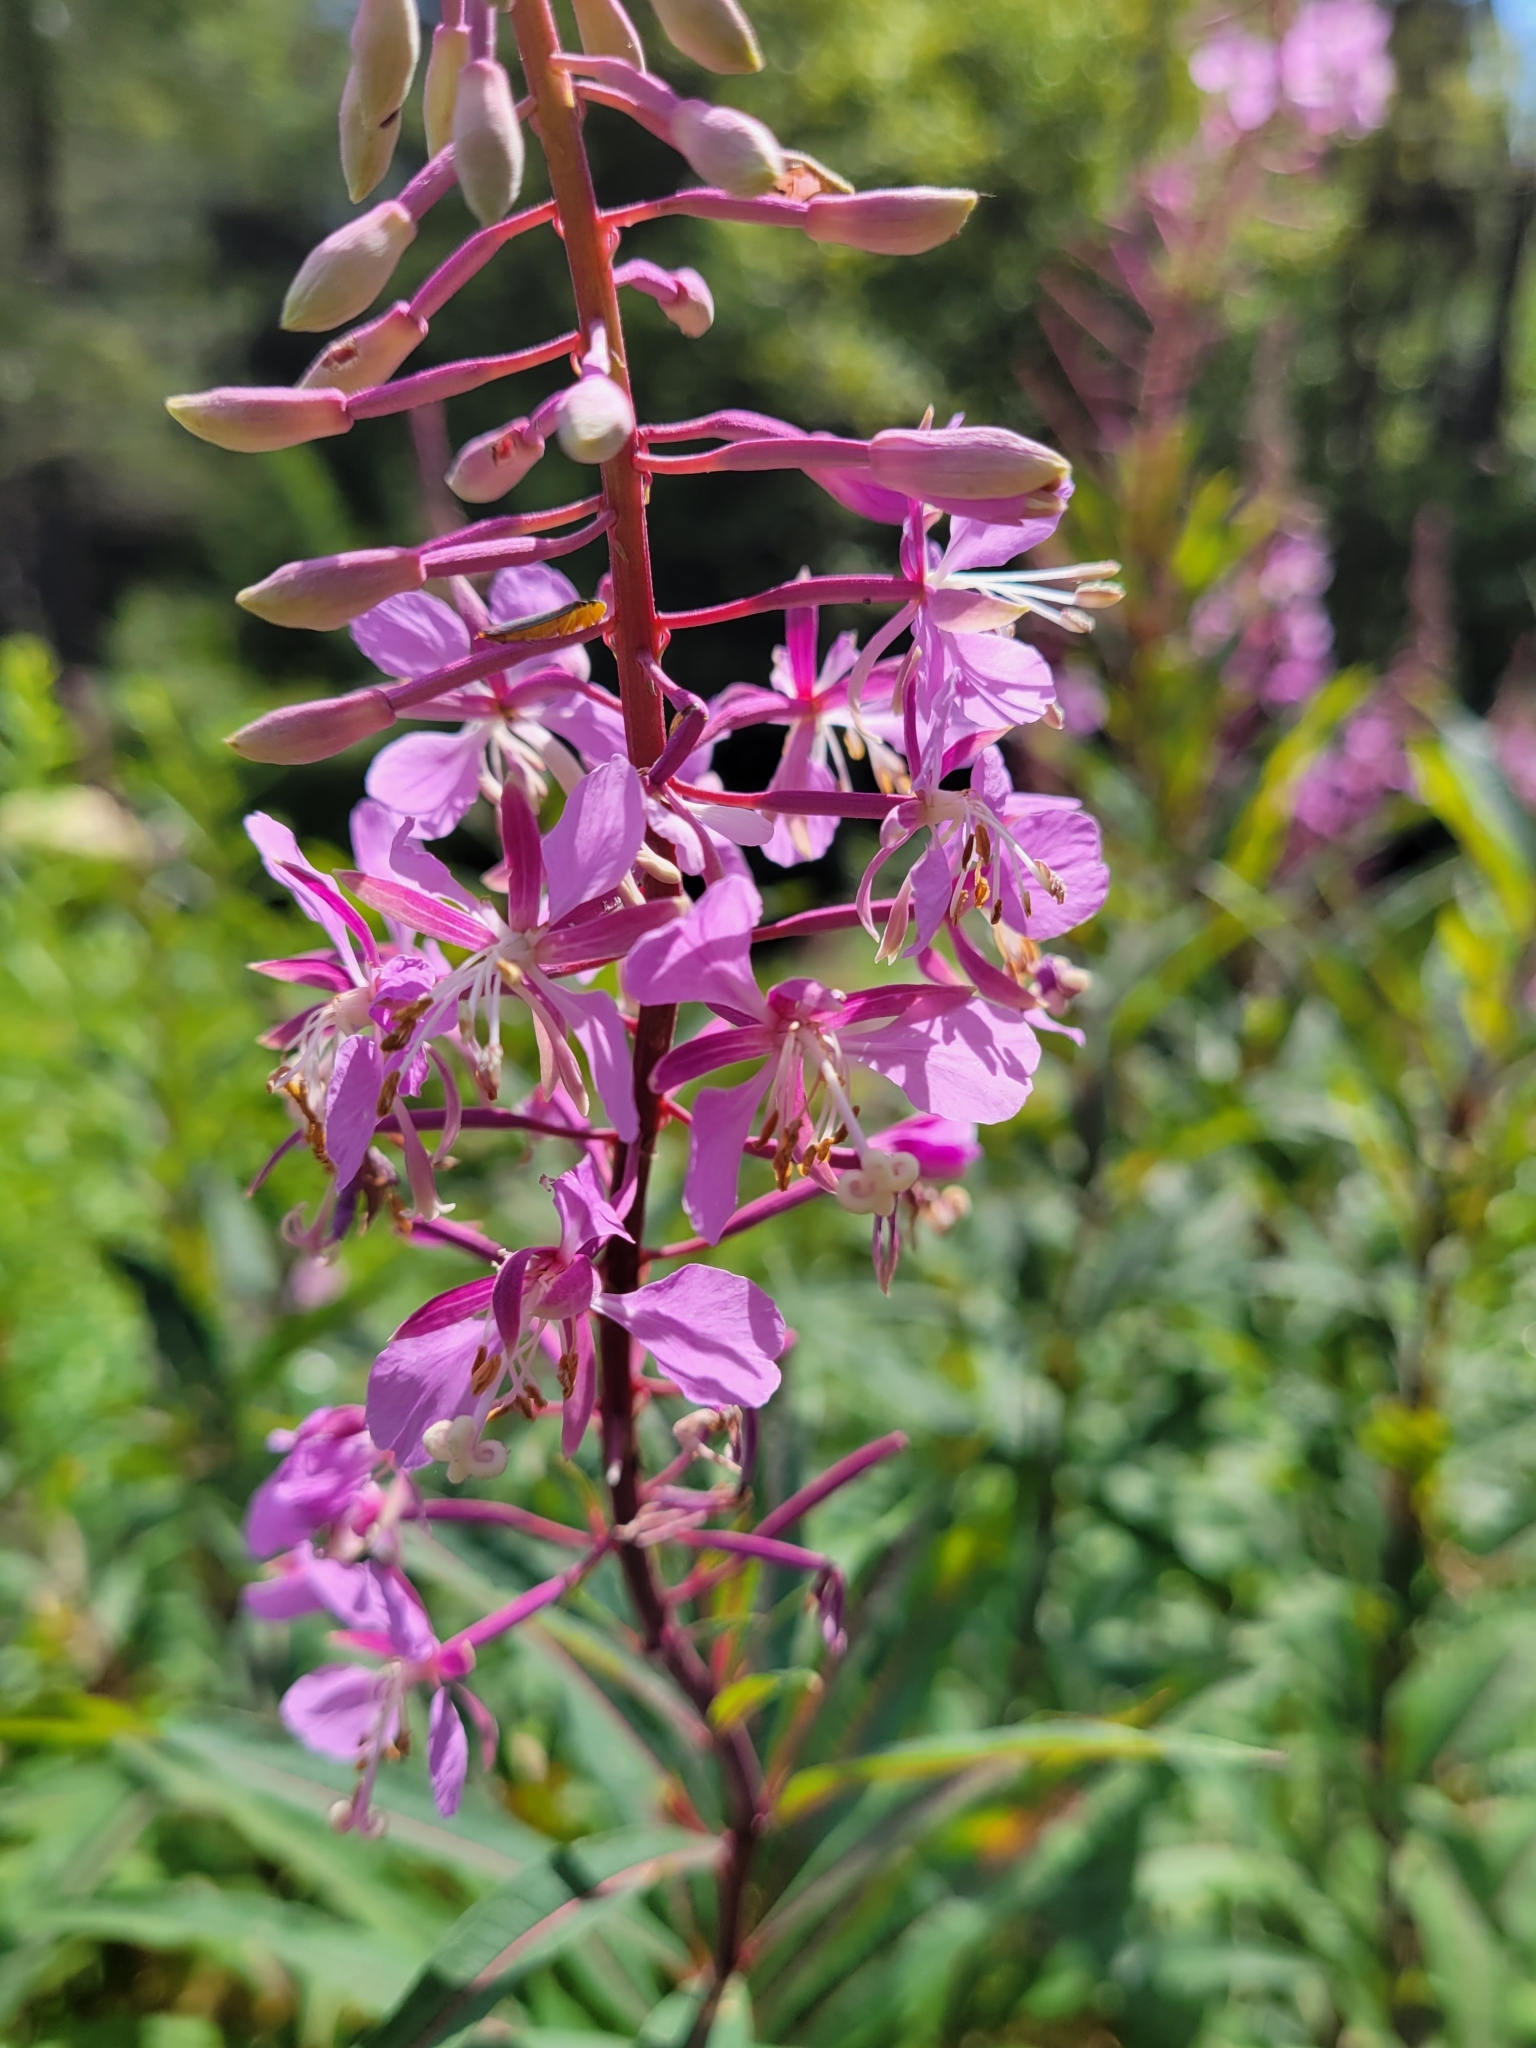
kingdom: Plantae
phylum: Tracheophyta
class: Magnoliopsida
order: Myrtales
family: Onagraceae
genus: Chamaenerion
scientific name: Chamaenerion angustifolium
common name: Fireweed
